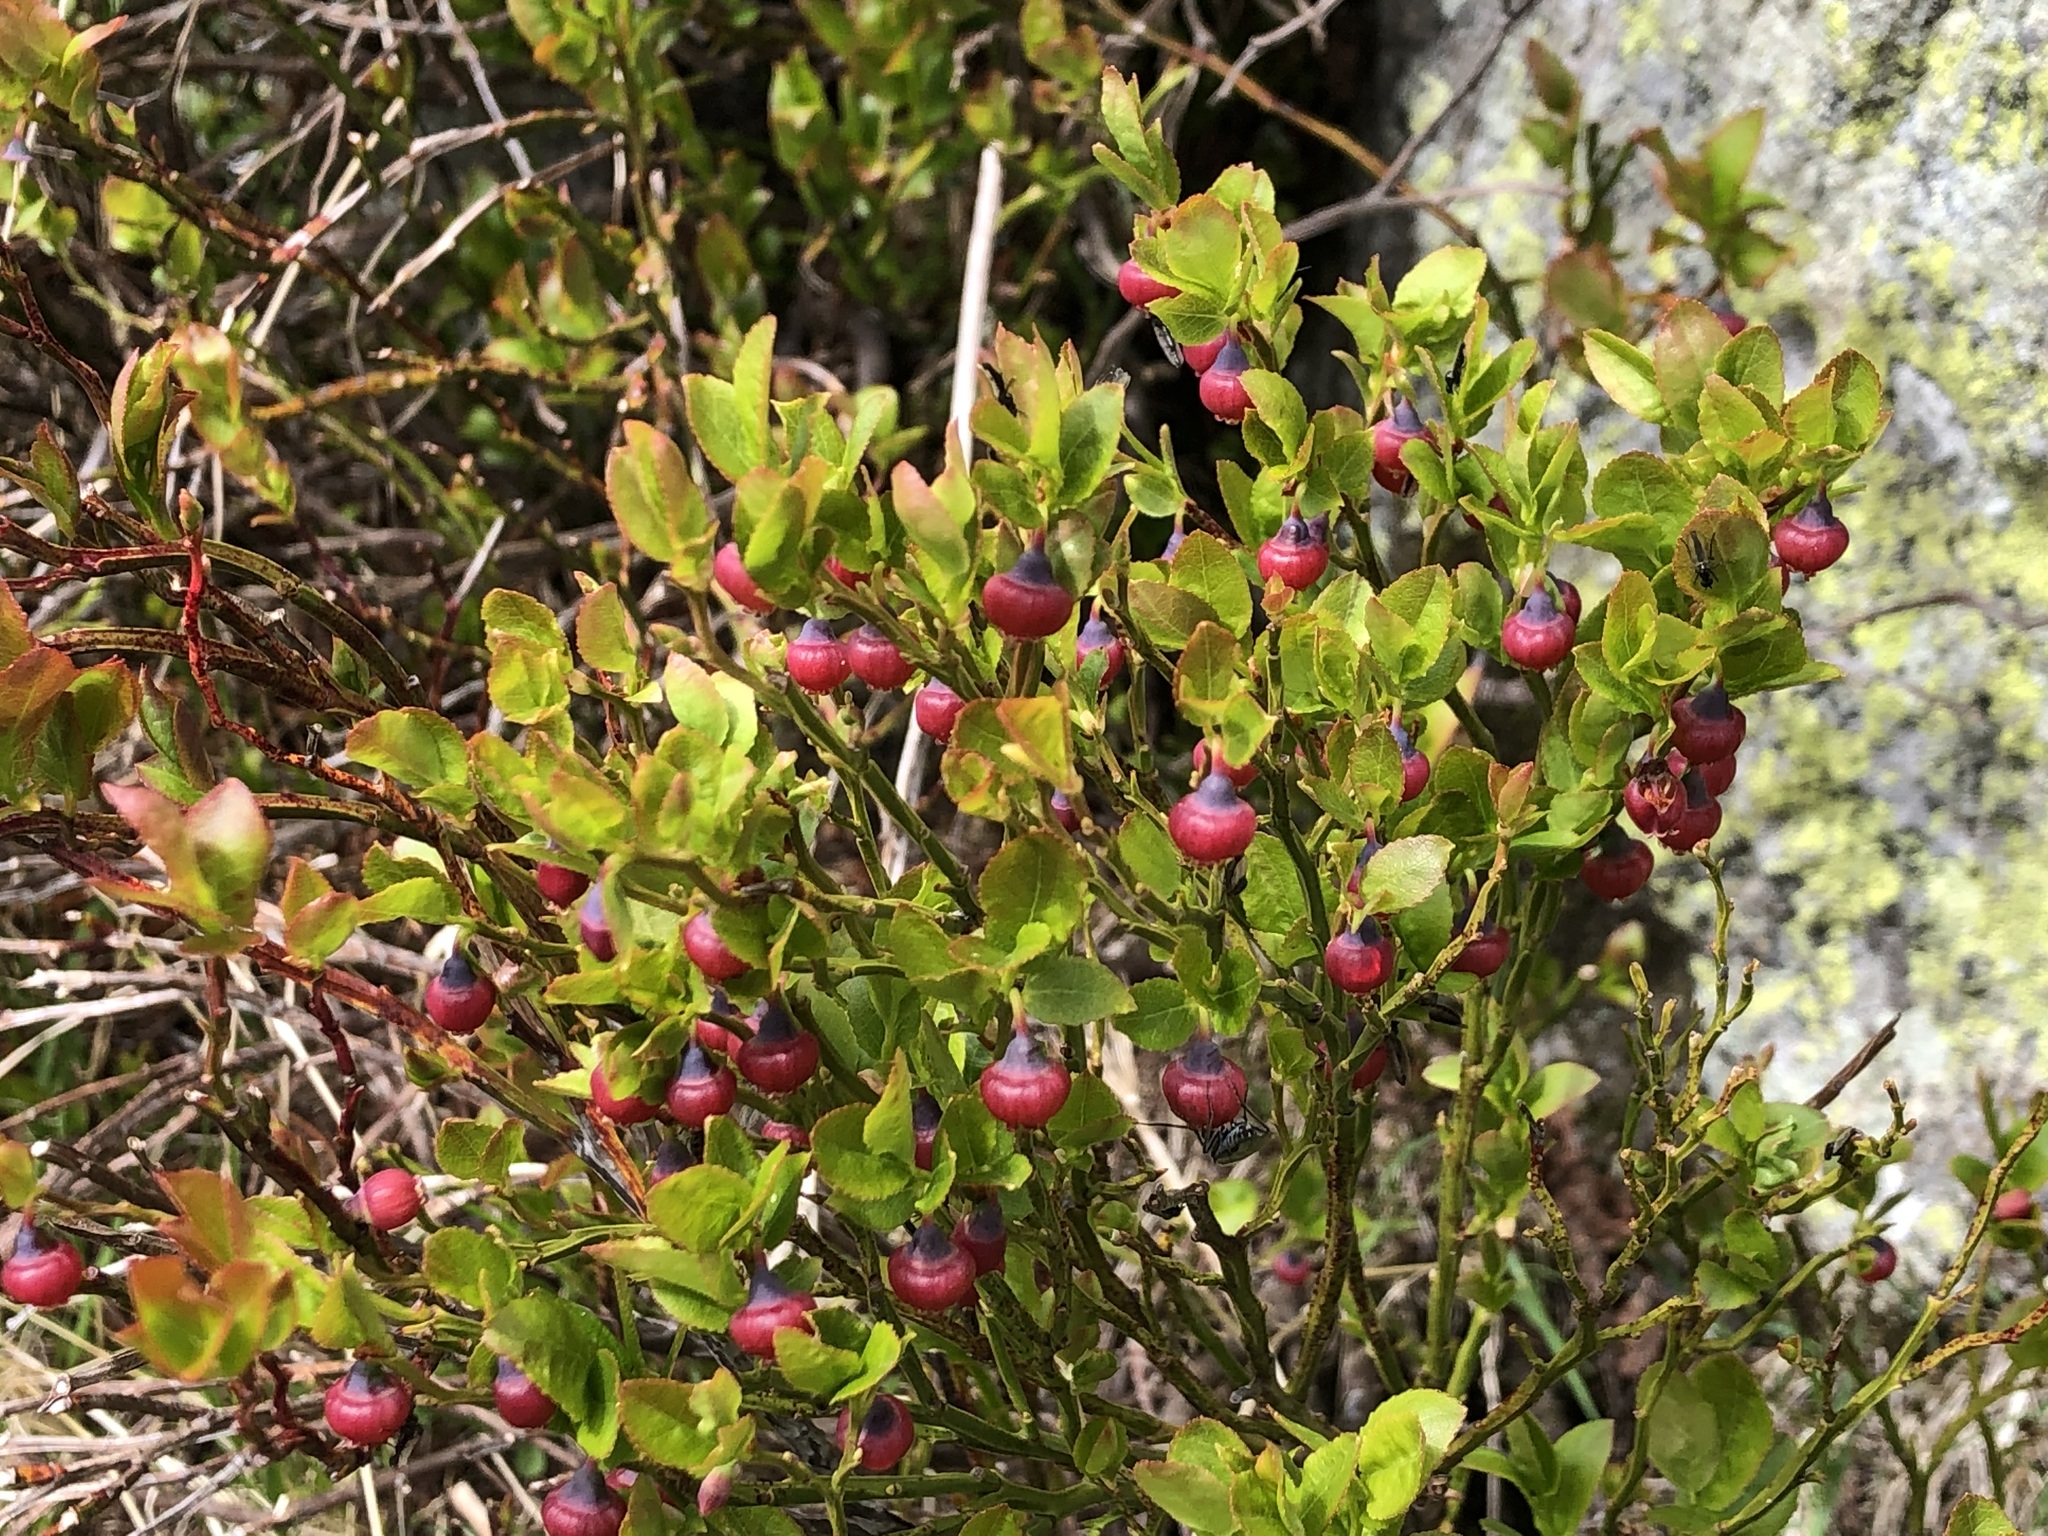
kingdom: Plantae
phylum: Tracheophyta
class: Magnoliopsida
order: Ericales
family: Ericaceae
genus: Vaccinium
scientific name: Vaccinium myrtillus
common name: Bilberry
